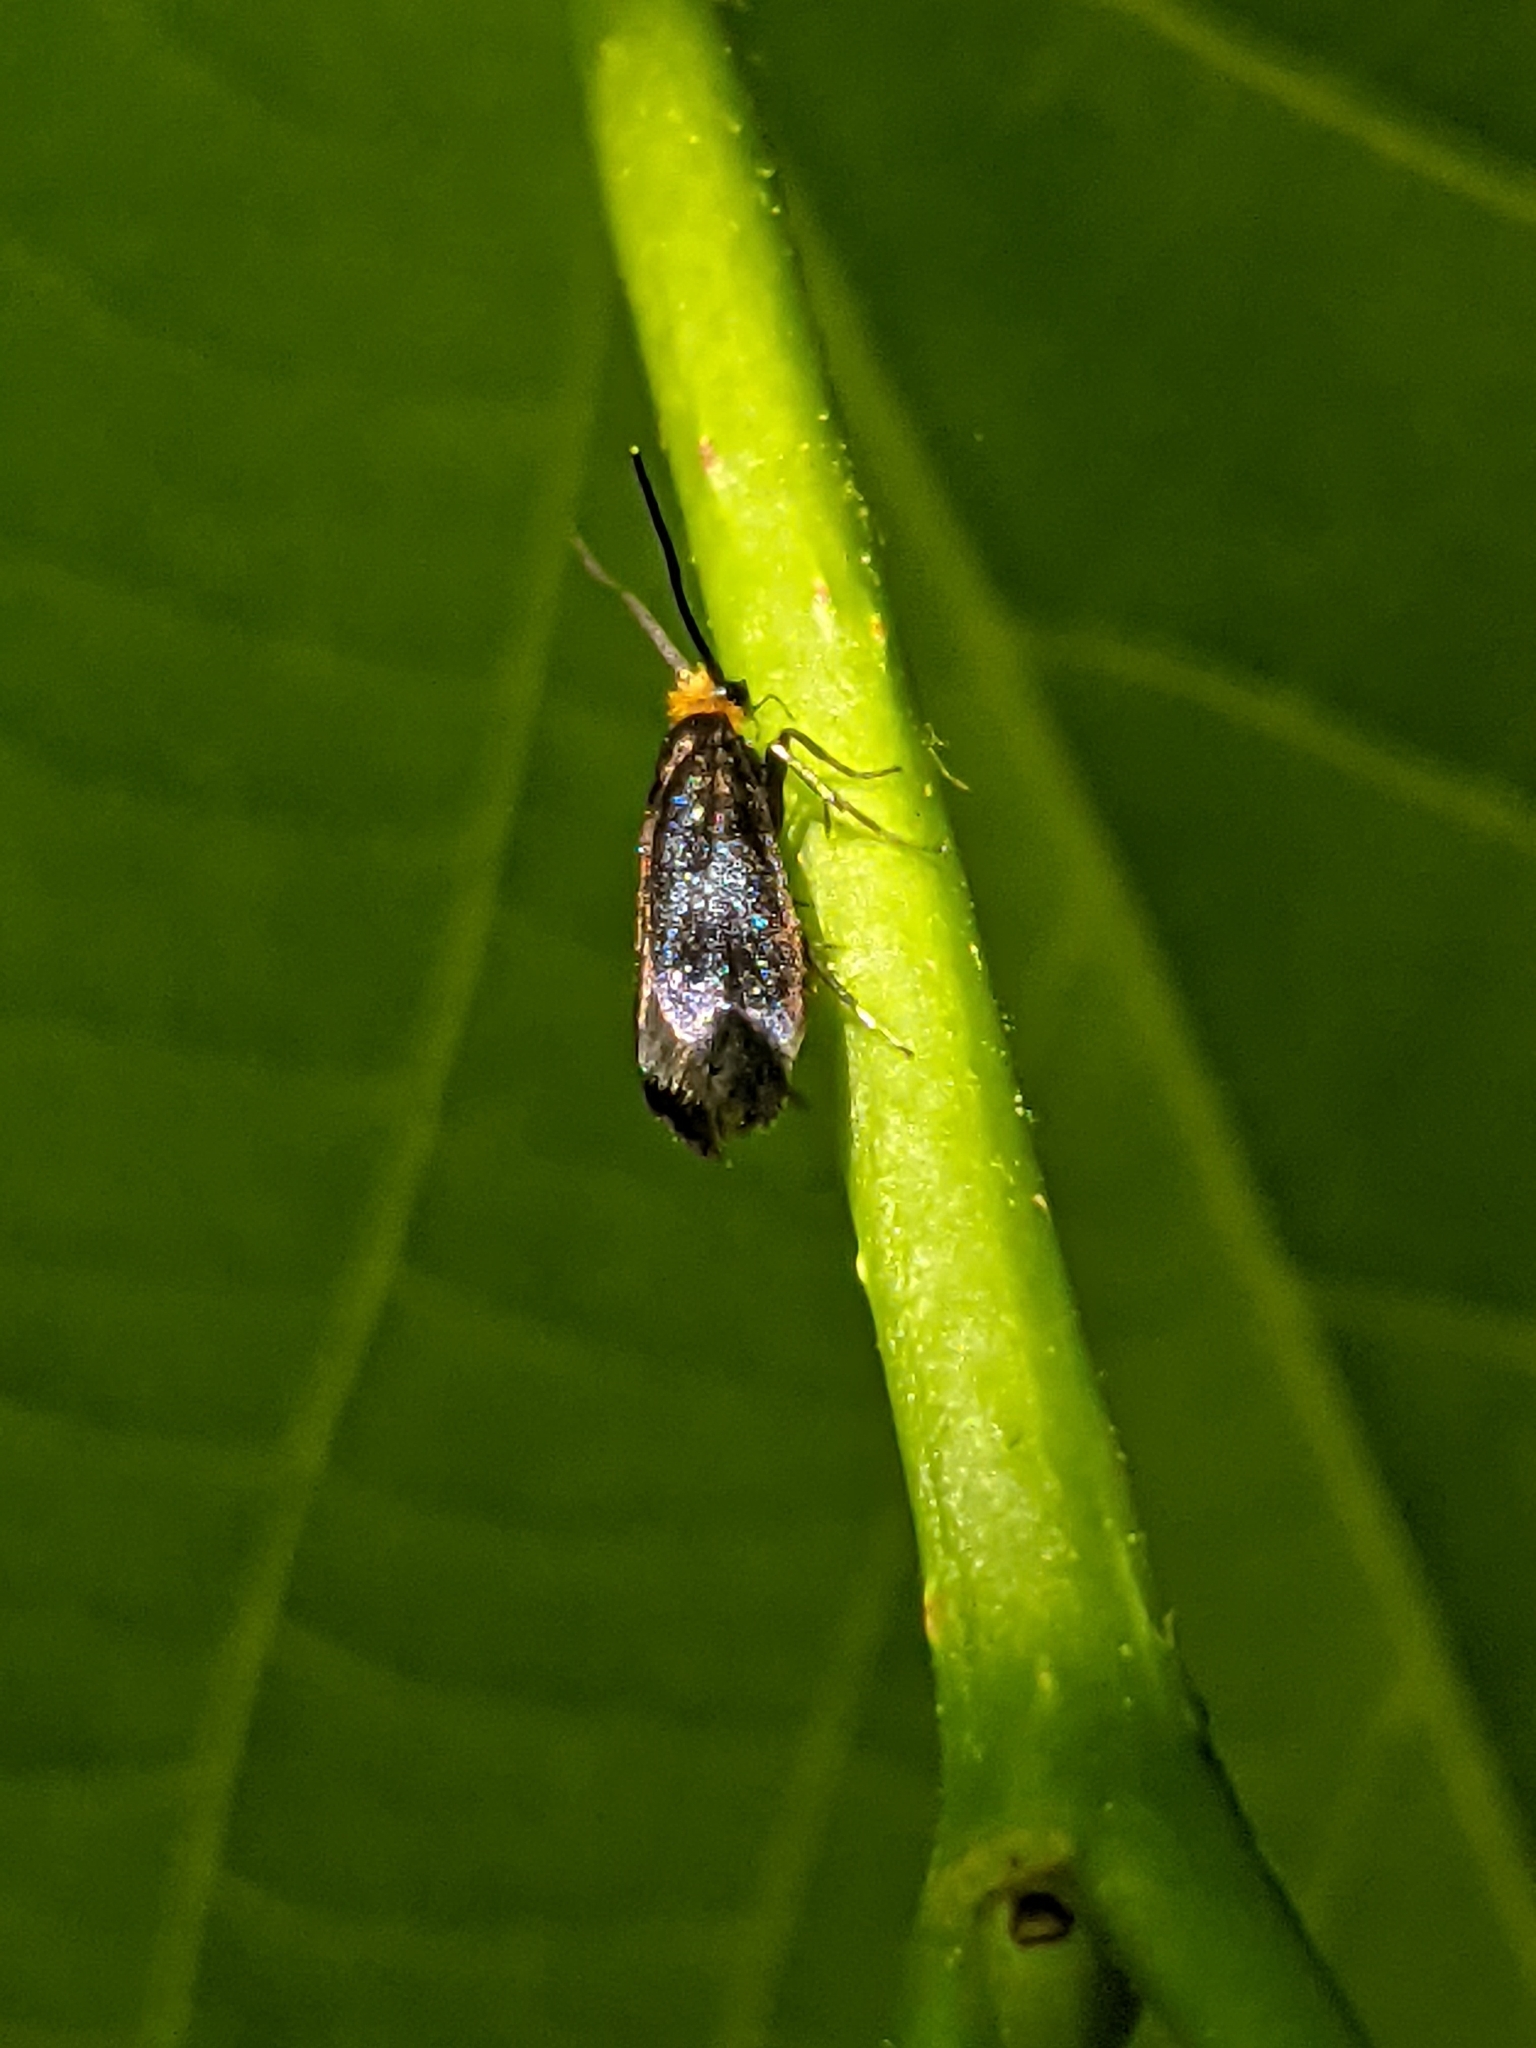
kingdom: Animalia
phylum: Arthropoda
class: Insecta
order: Lepidoptera
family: Incurvariidae
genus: Paraclemensia
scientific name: Paraclemensia acerifoliella
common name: Maple leafcutter
